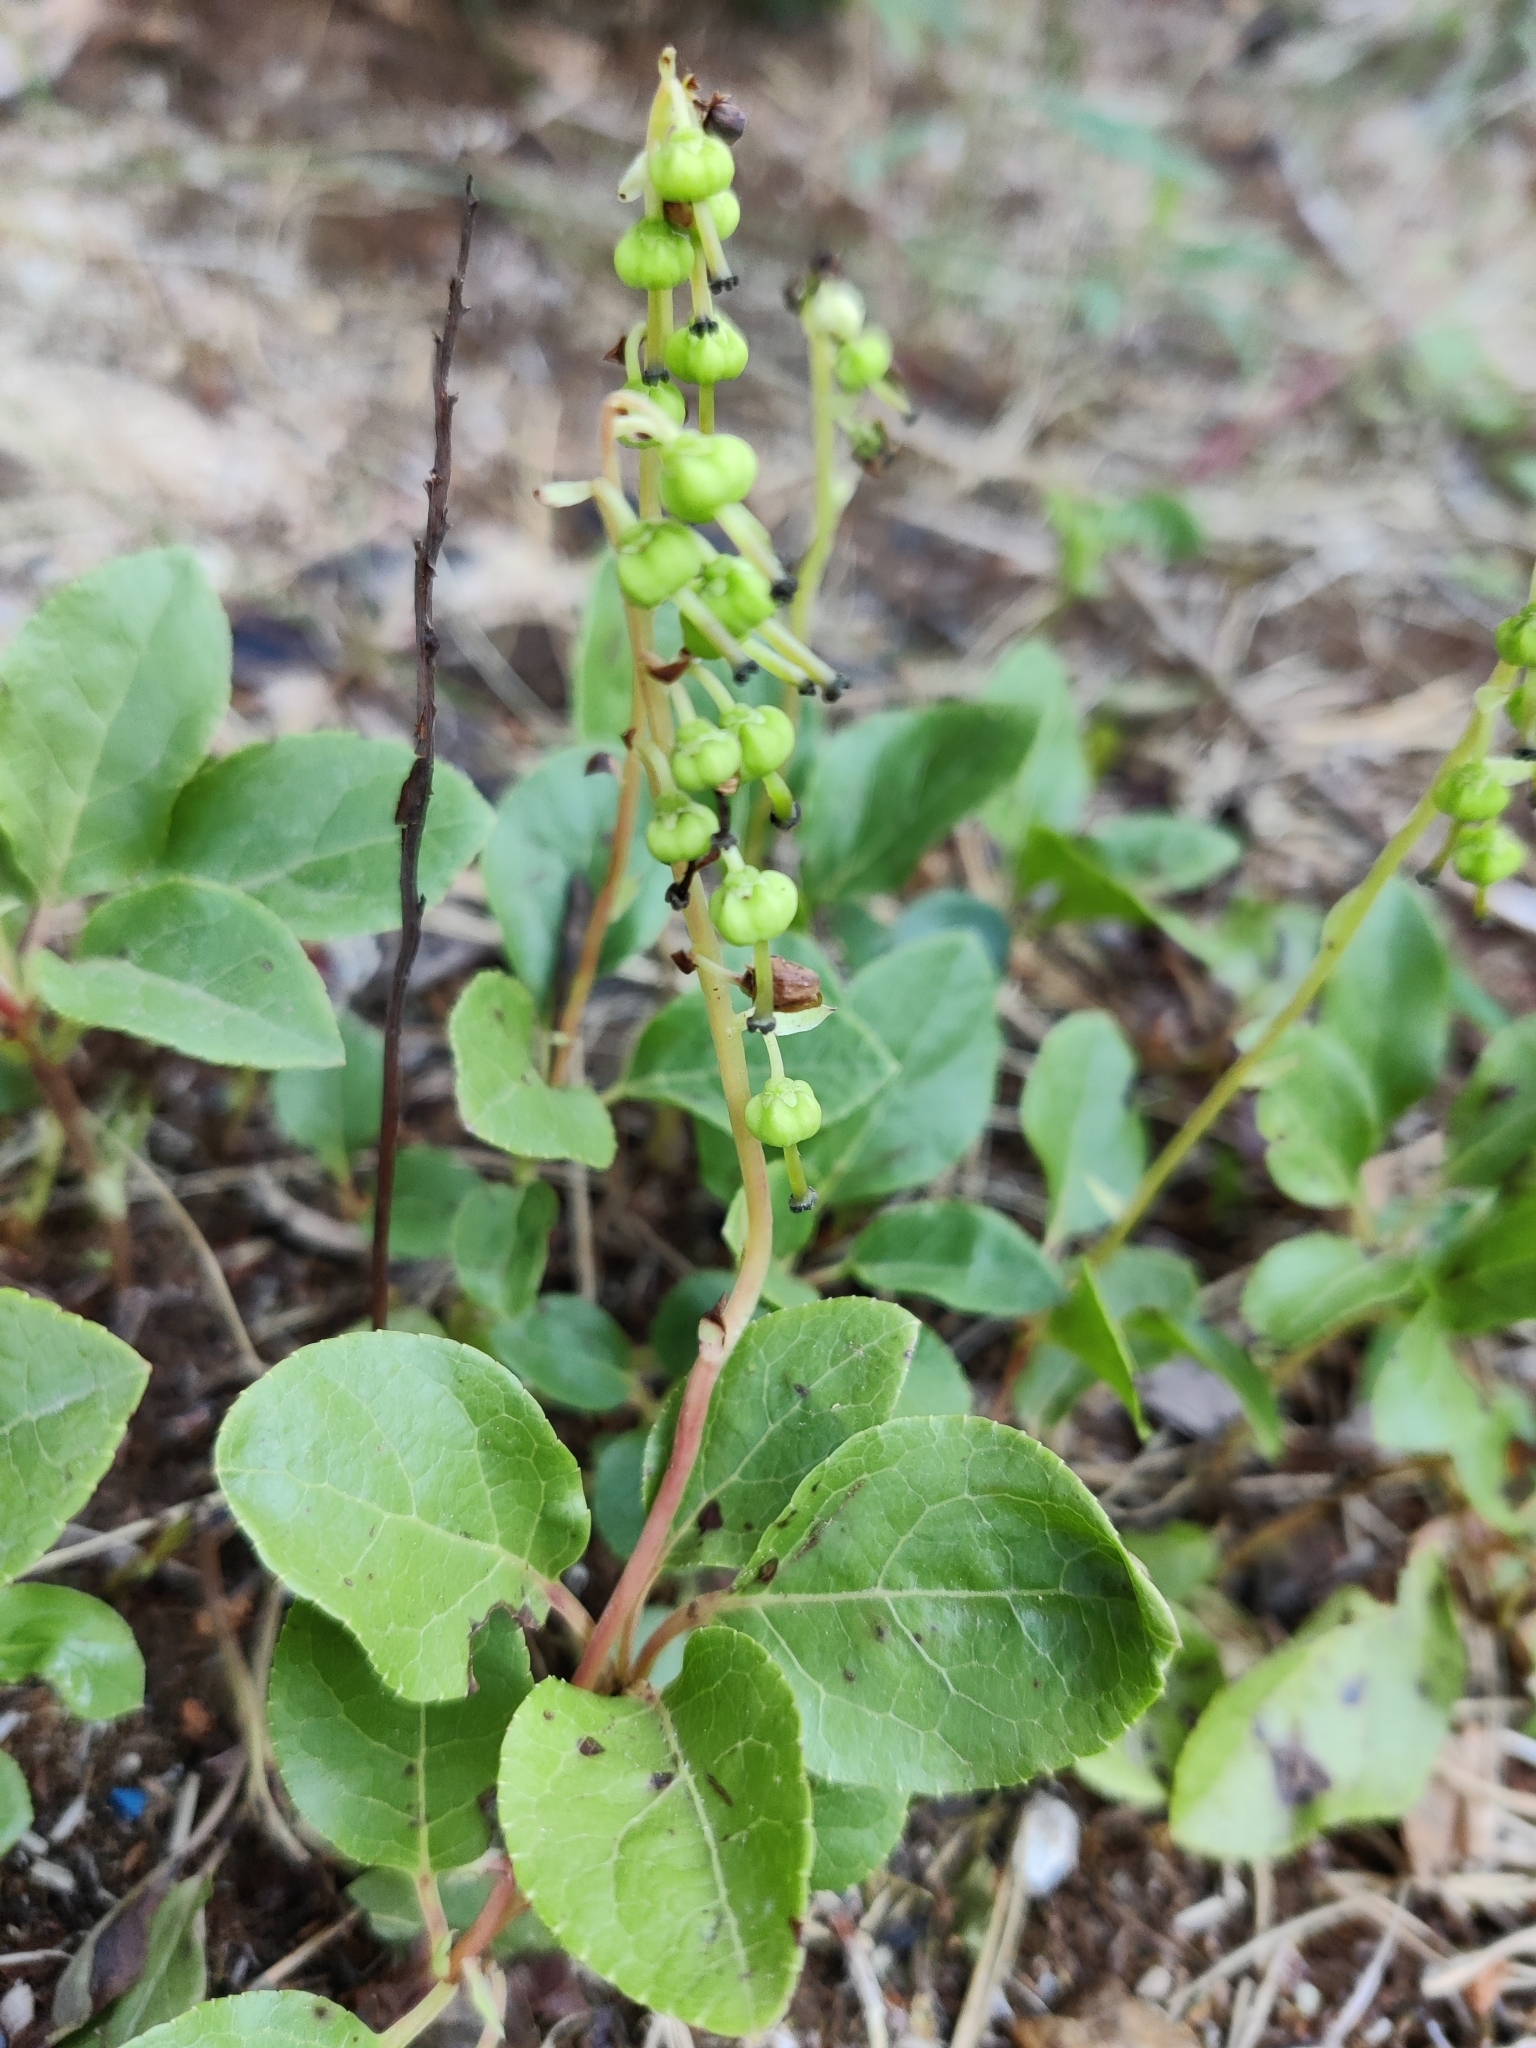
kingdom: Plantae
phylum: Tracheophyta
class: Magnoliopsida
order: Ericales
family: Ericaceae
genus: Orthilia
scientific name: Orthilia secunda
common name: One-sided orthilia
